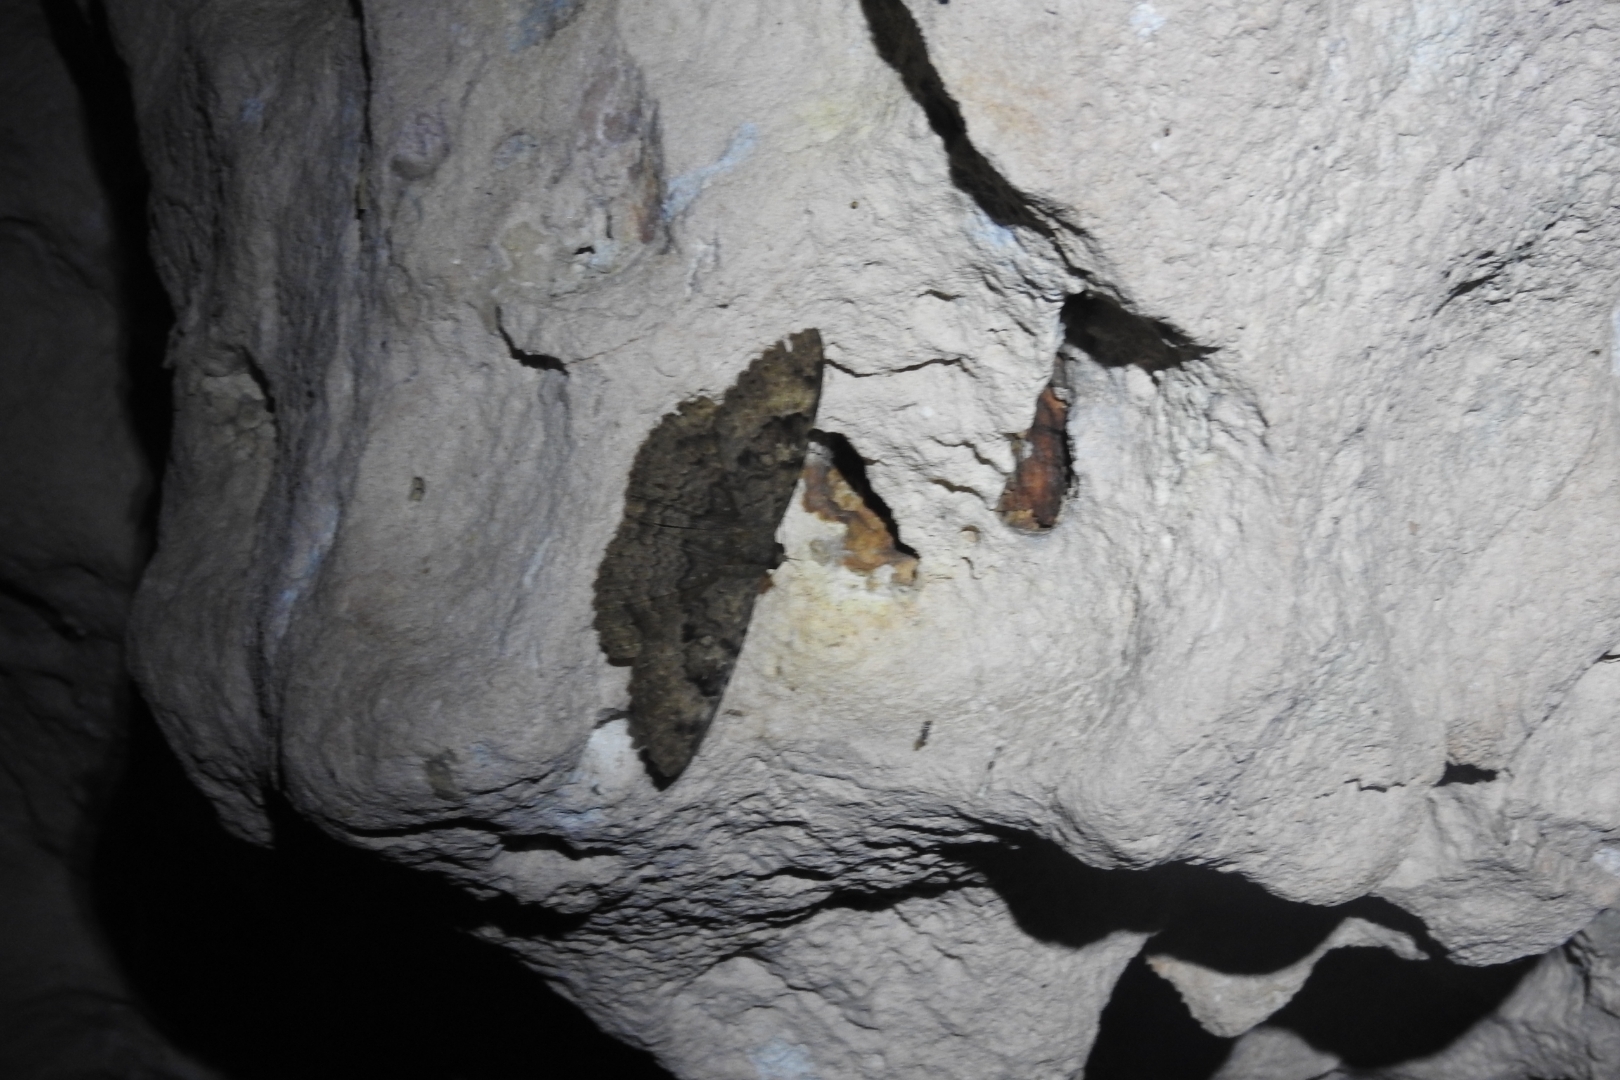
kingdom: Animalia
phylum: Arthropoda
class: Insecta
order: Lepidoptera
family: Erebidae
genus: Latebraria
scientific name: Latebraria amphipyroides
